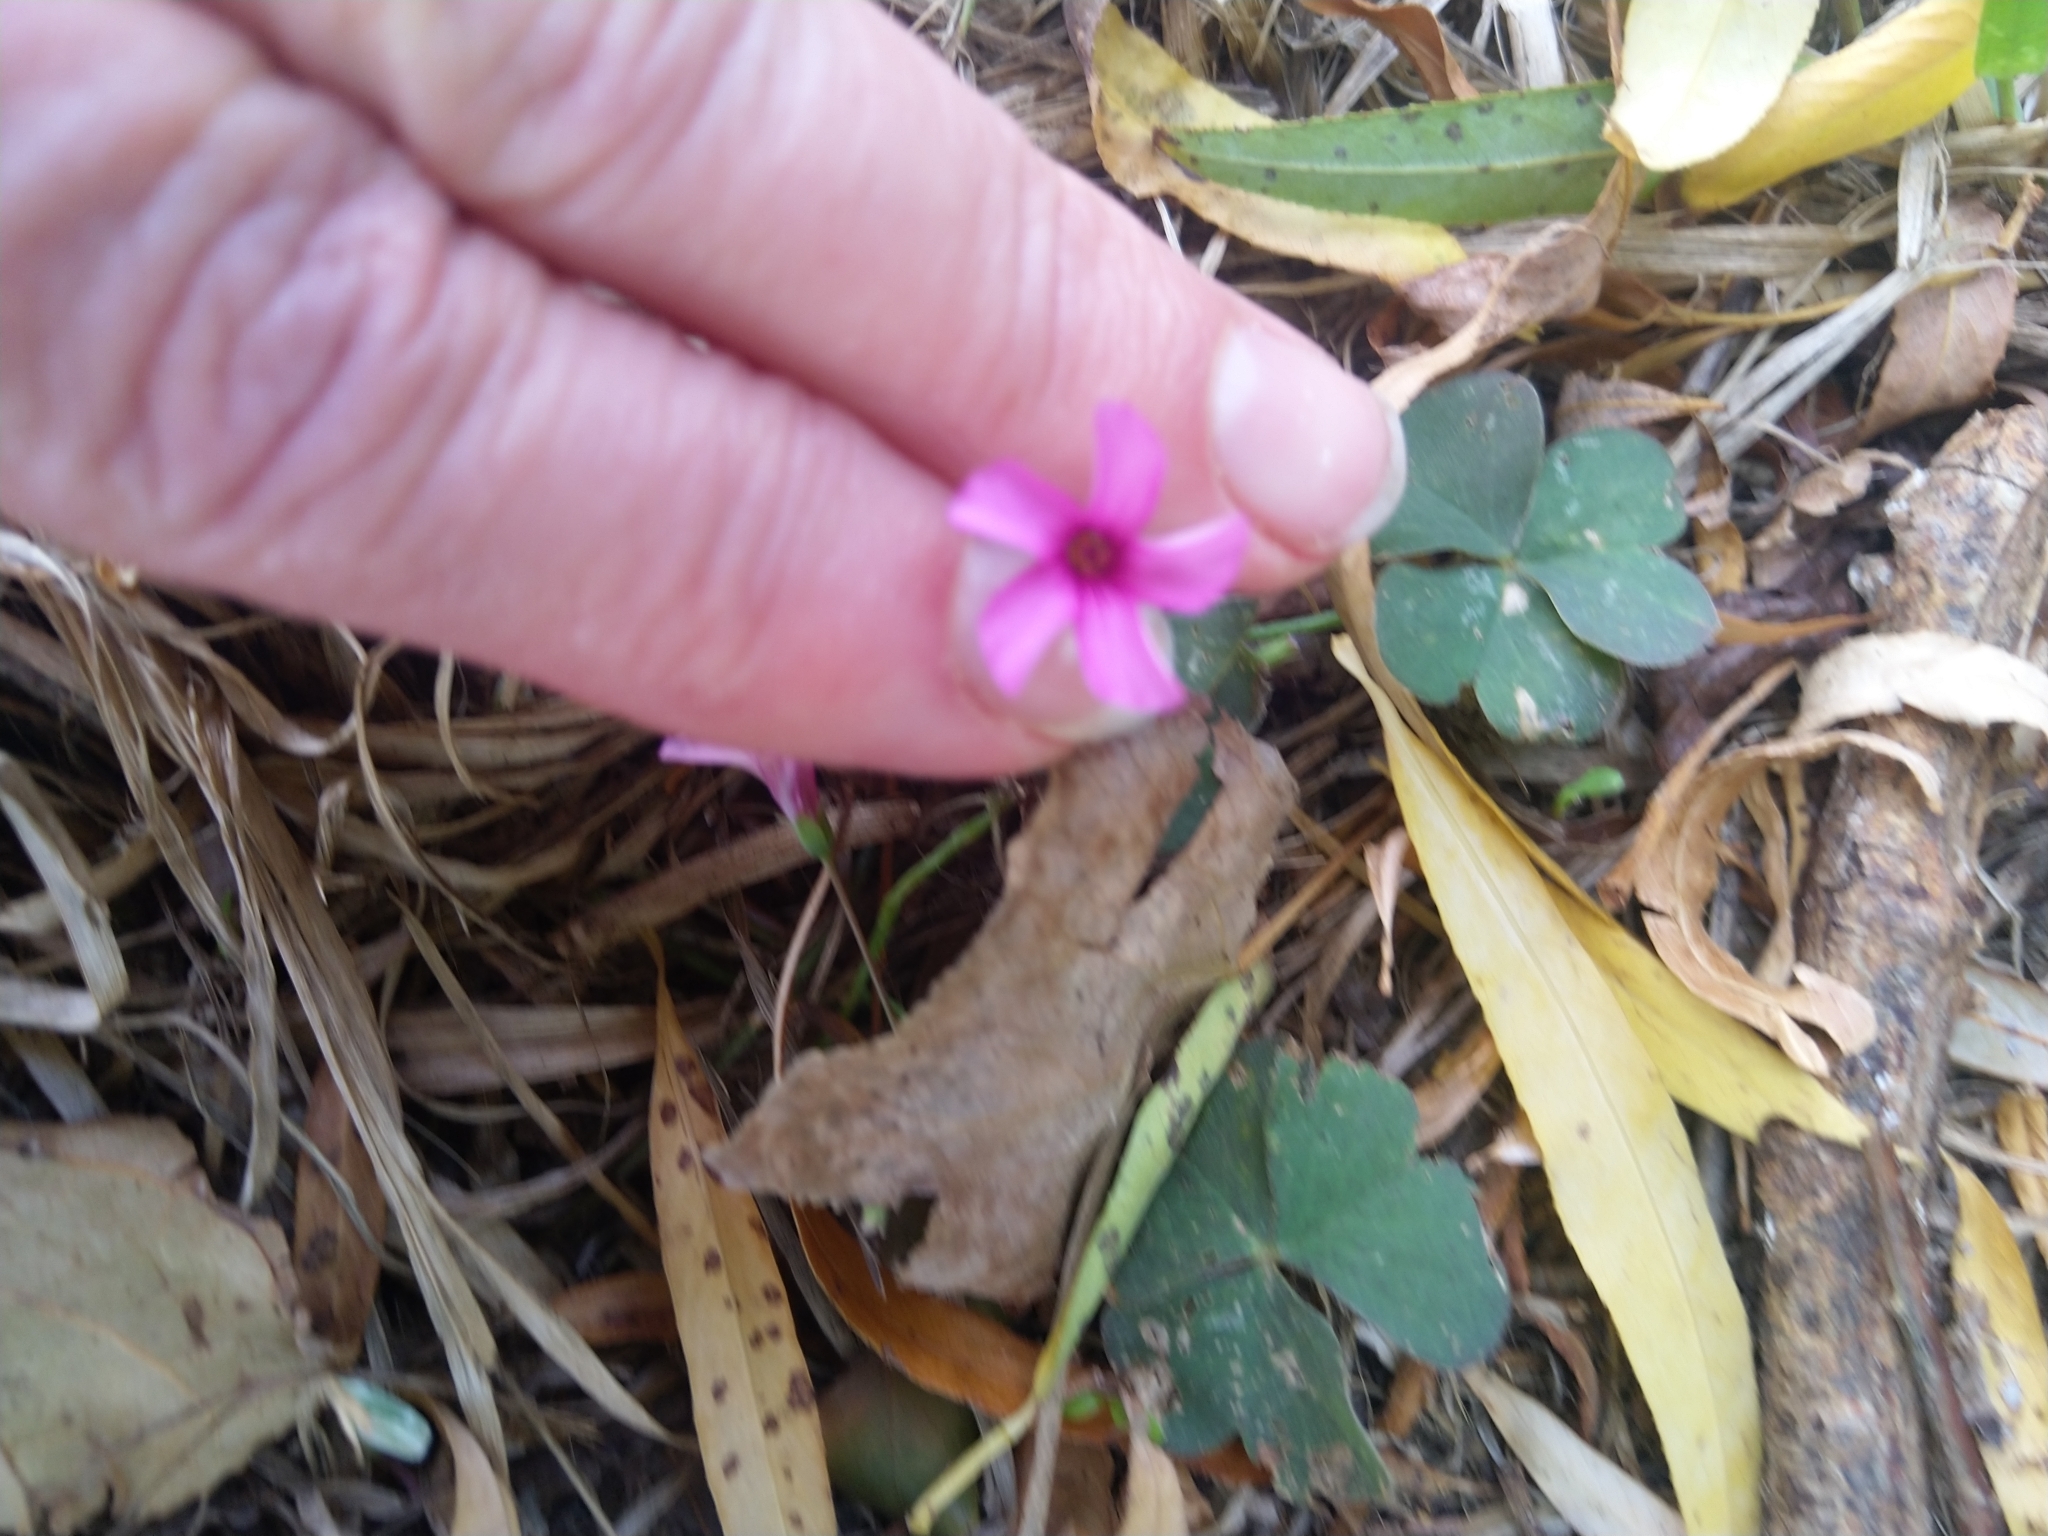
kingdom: Plantae
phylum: Tracheophyta
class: Magnoliopsida
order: Oxalidales
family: Oxalidaceae
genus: Oxalis
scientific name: Oxalis articulata
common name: Pink-sorrel
